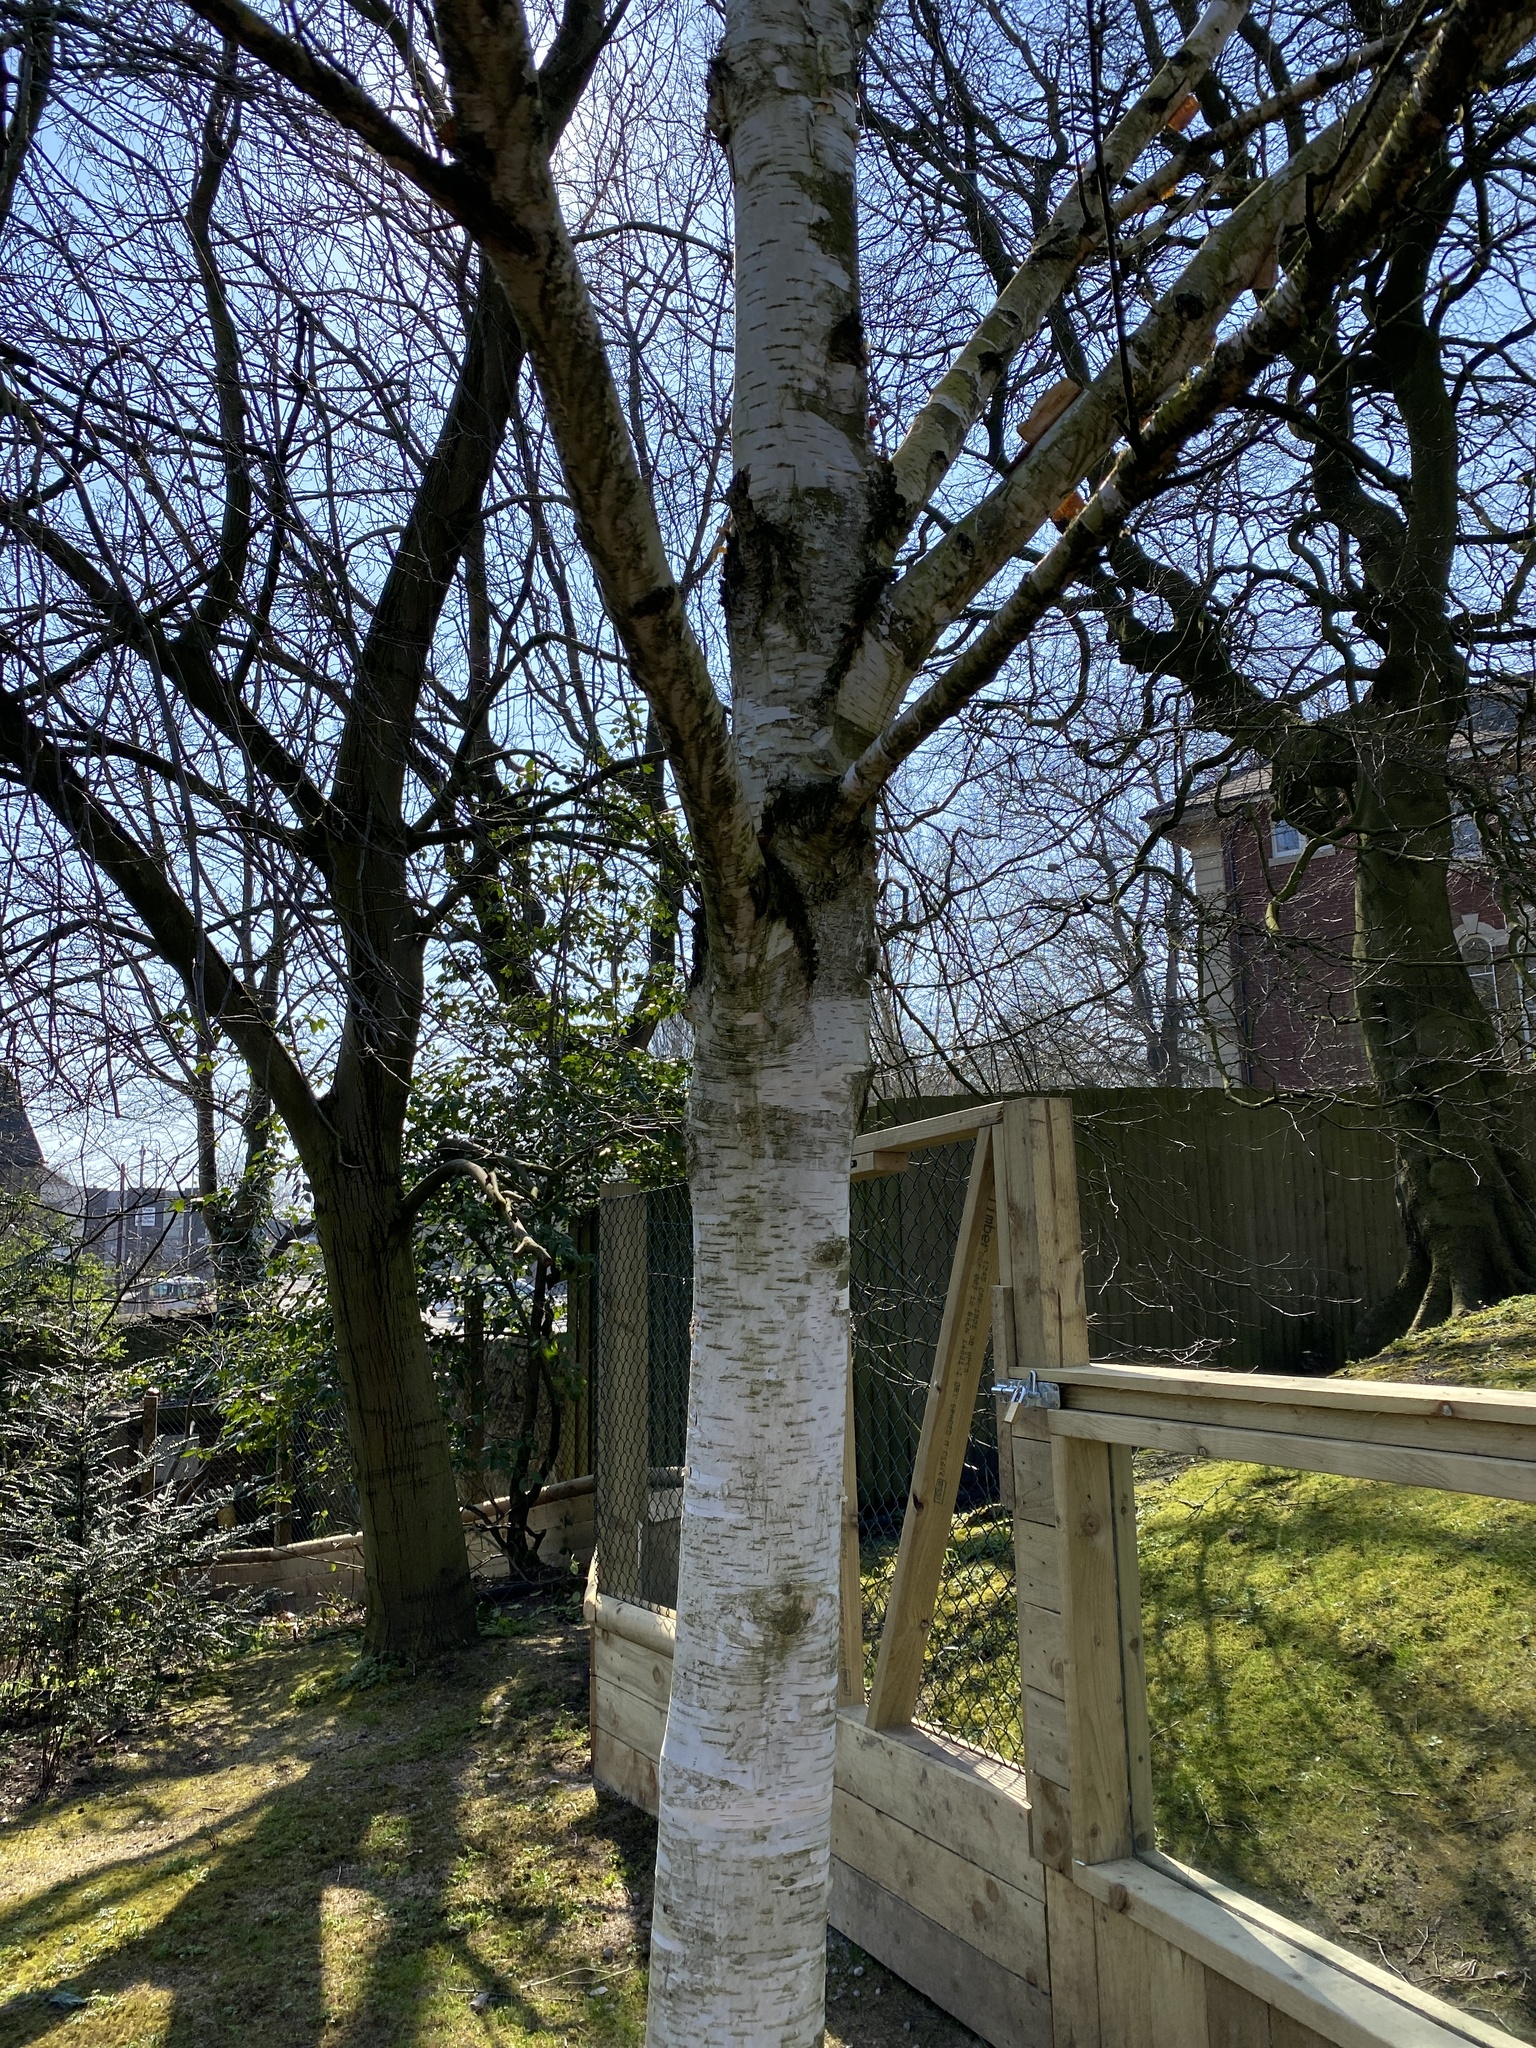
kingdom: Plantae
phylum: Tracheophyta
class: Magnoliopsida
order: Fagales
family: Betulaceae
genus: Betula
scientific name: Betula pendula
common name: Silver birch
